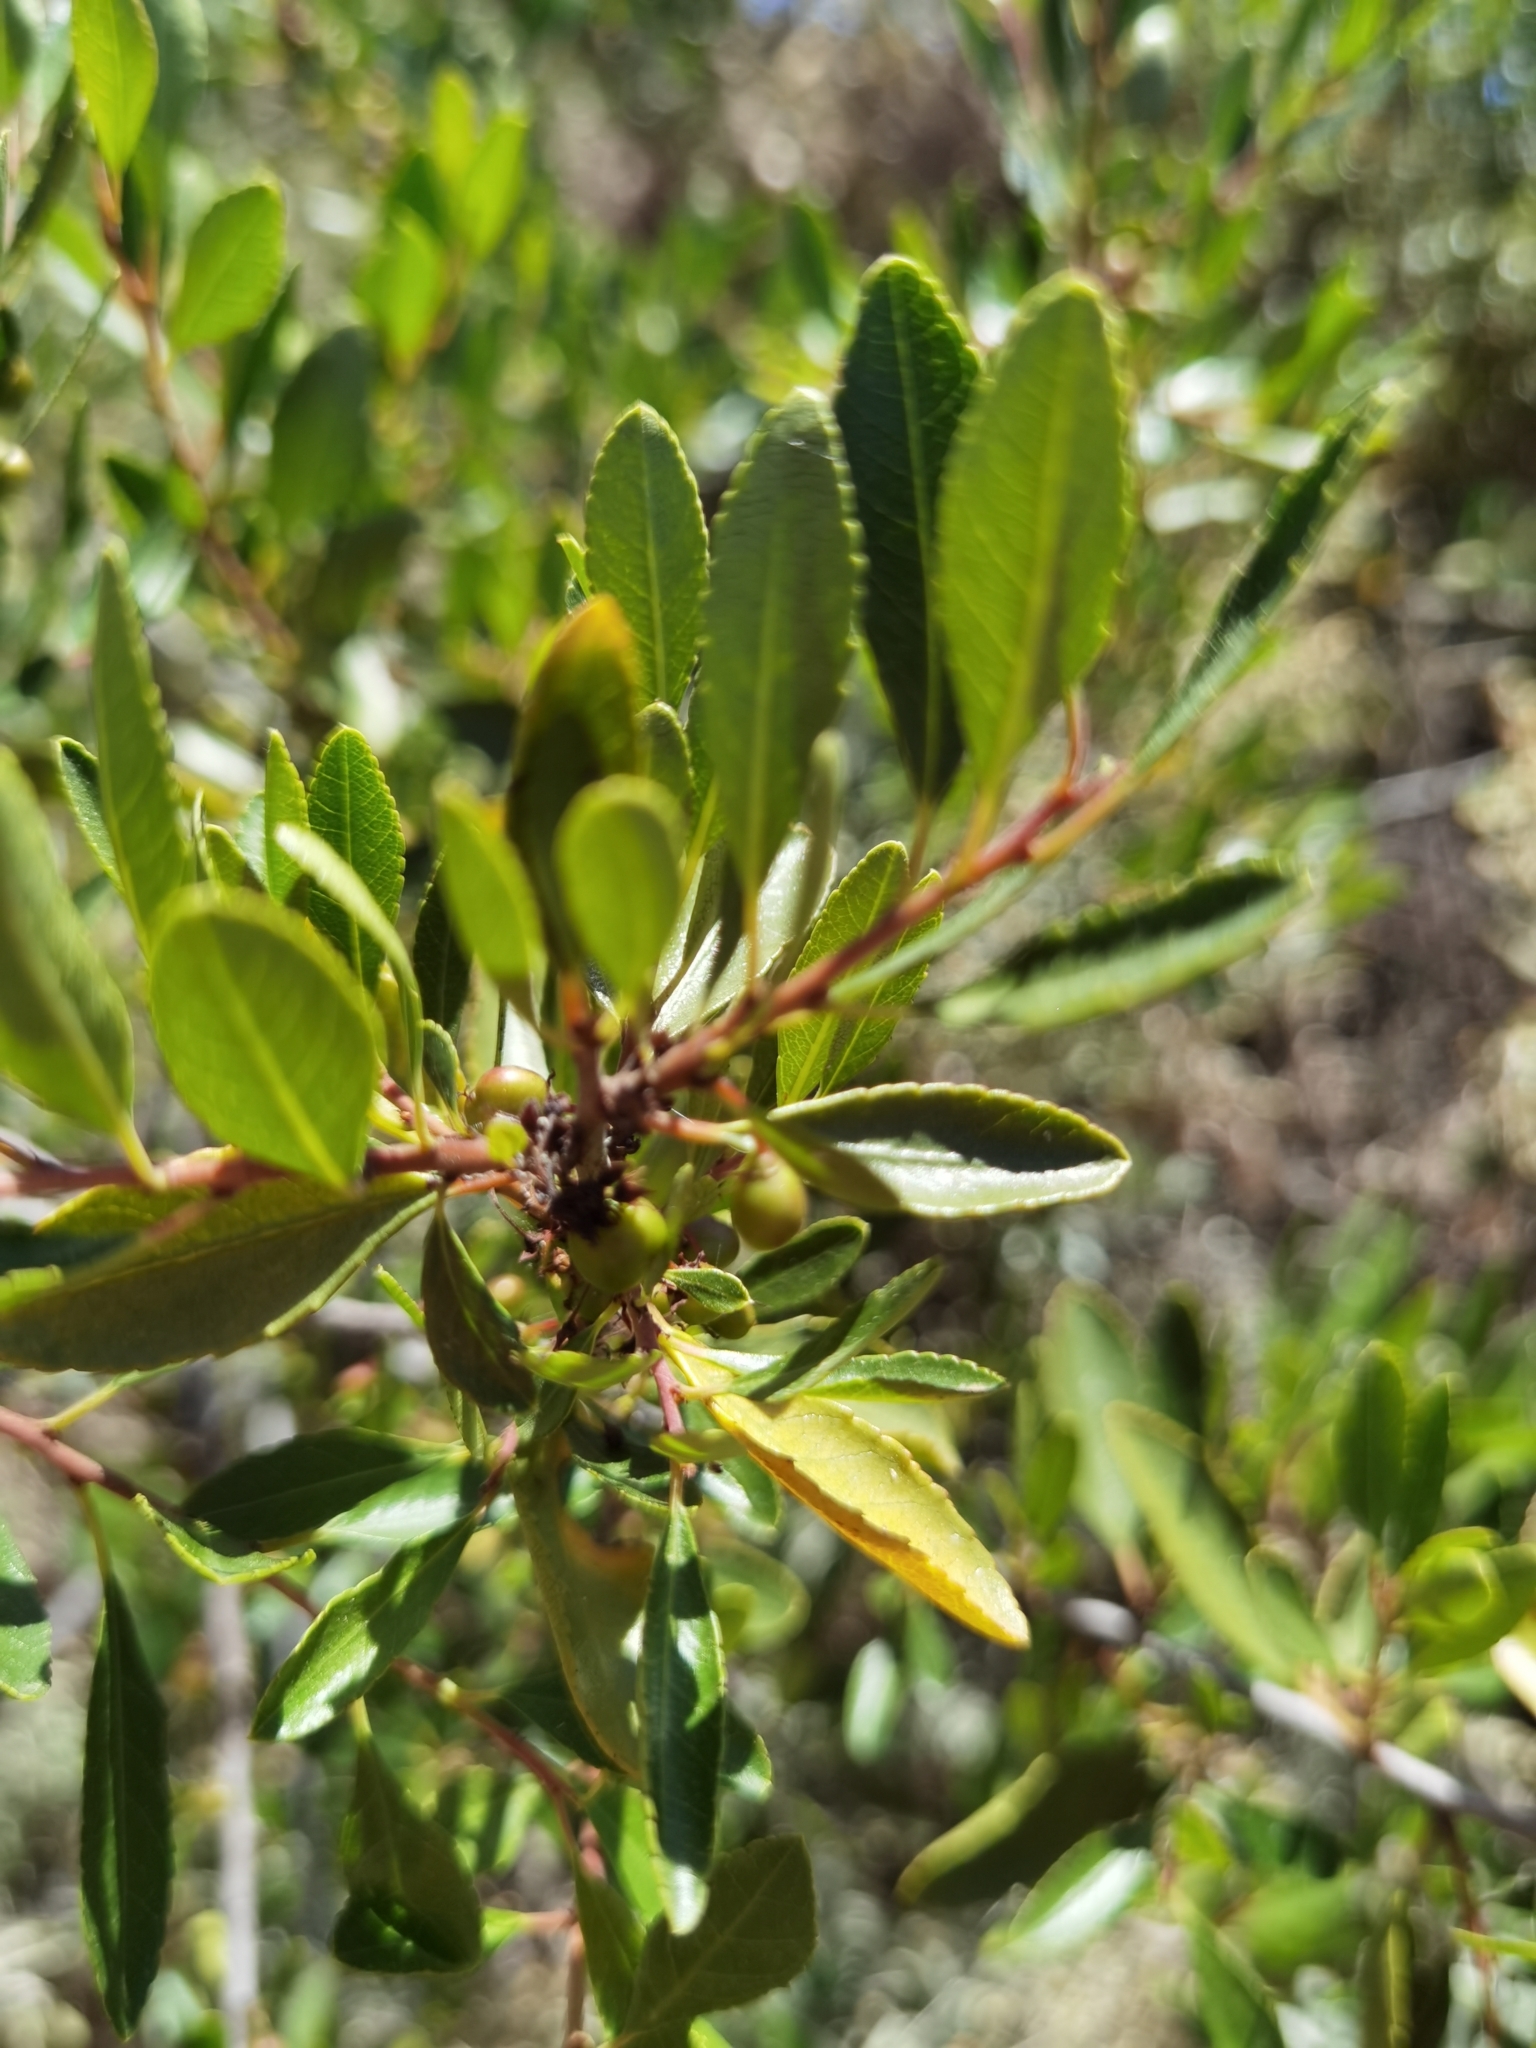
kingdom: Plantae
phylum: Tracheophyta
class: Magnoliopsida
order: Gentianales
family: Rubiaceae
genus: Rubia
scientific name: Rubia fruticosa
